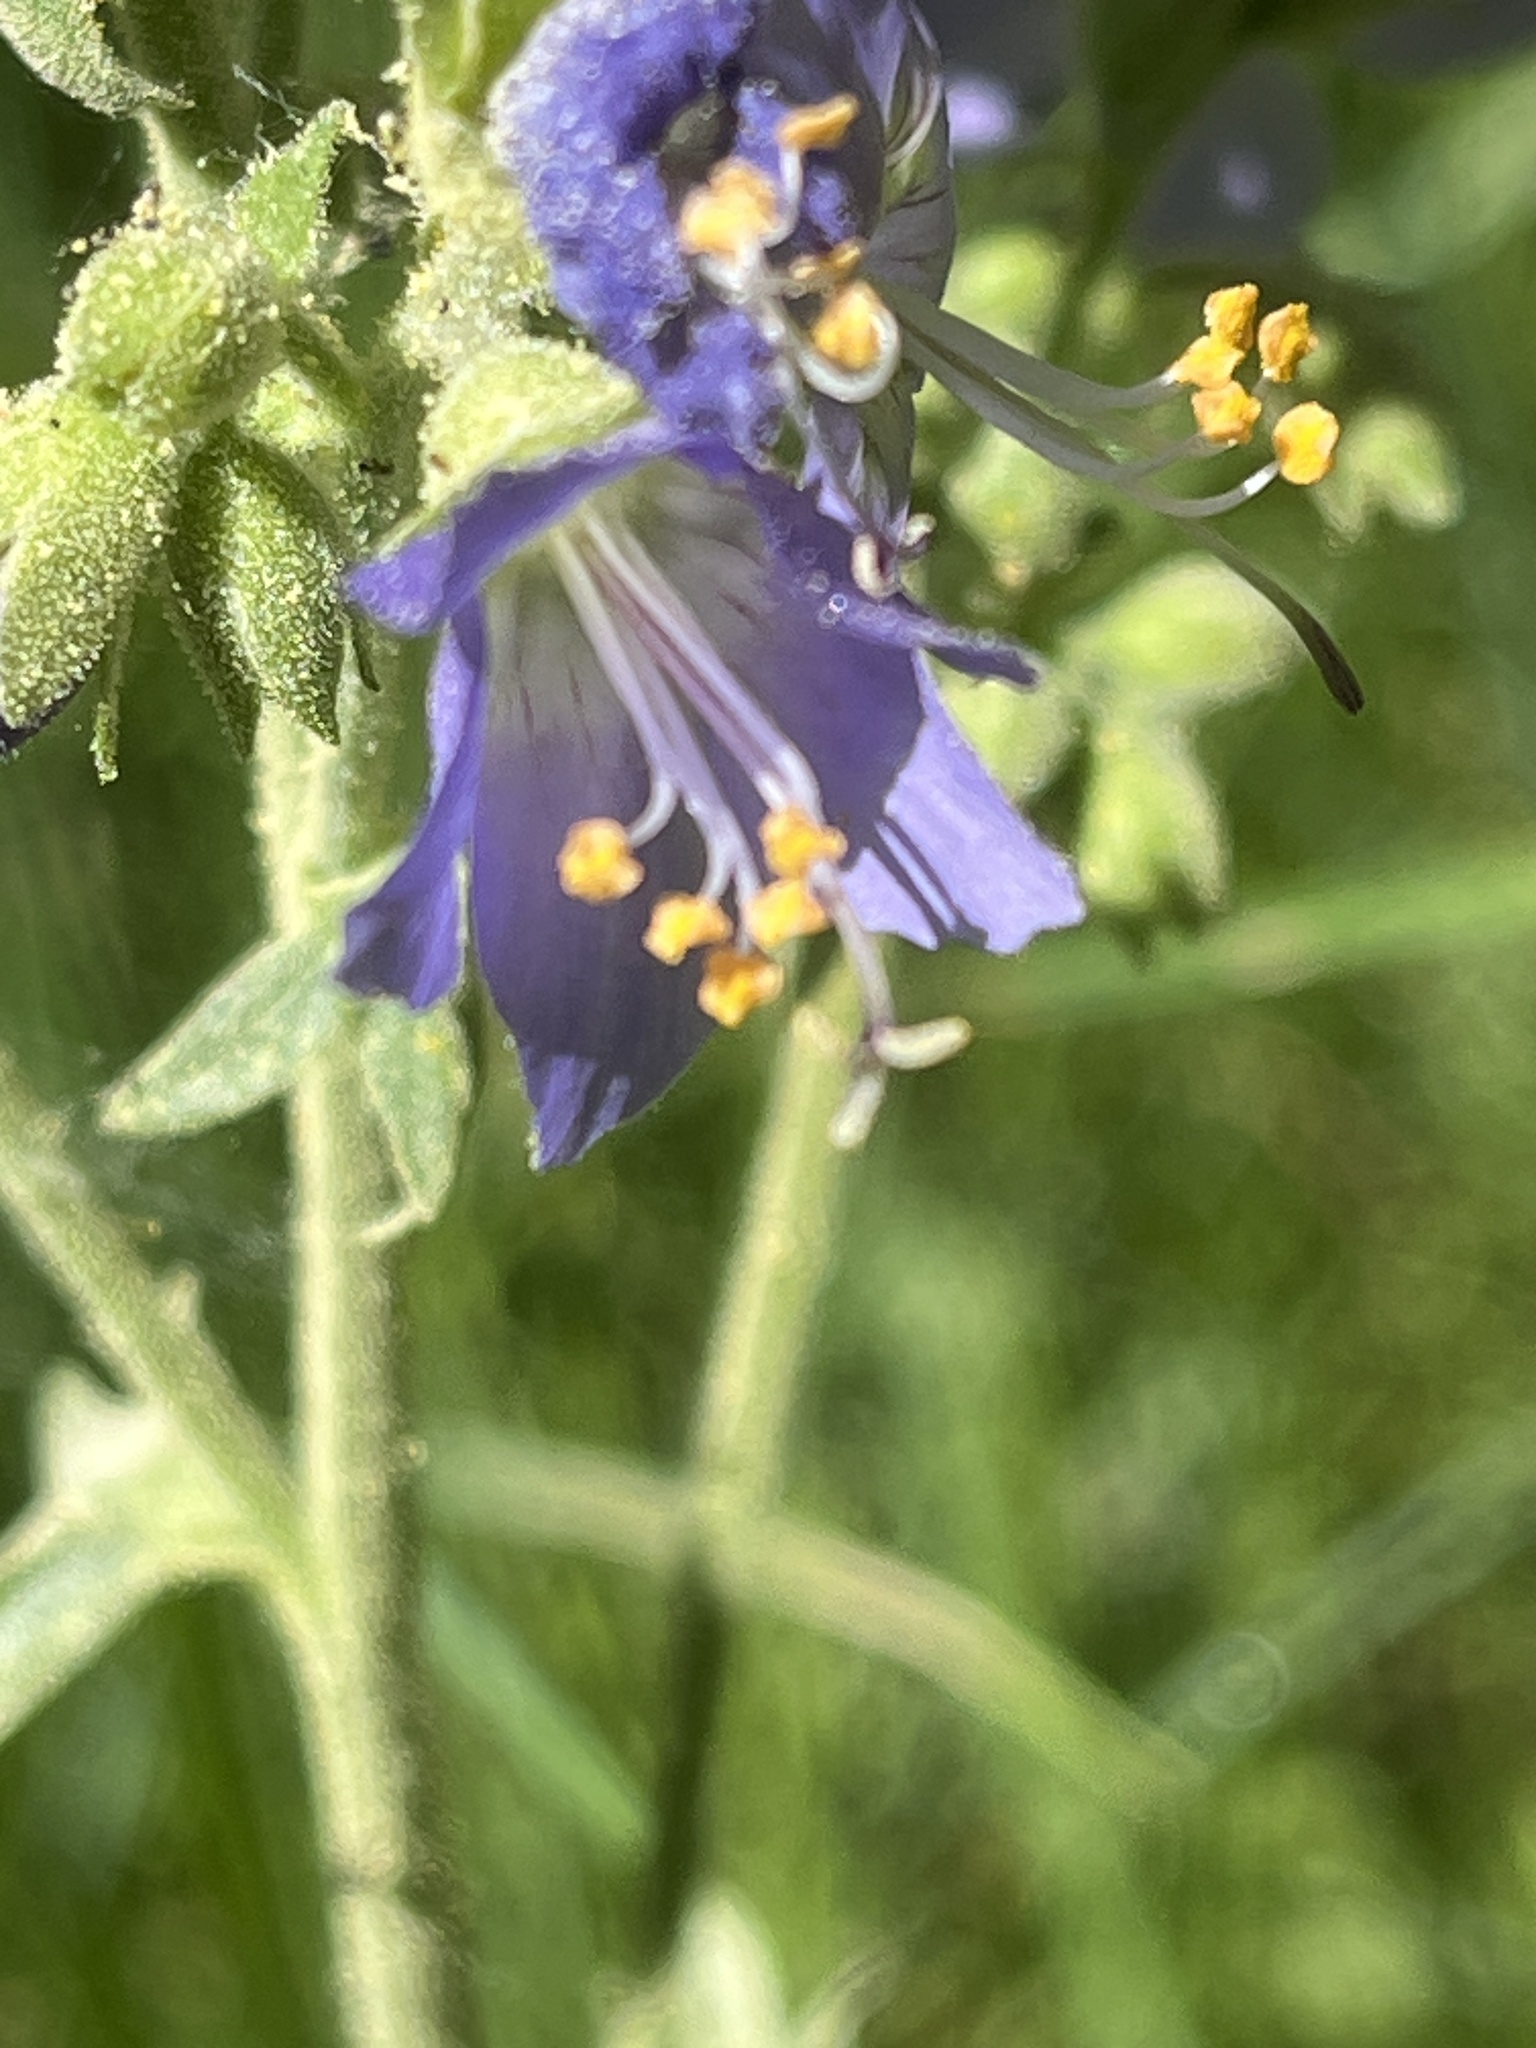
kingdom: Plantae
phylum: Tracheophyta
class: Magnoliopsida
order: Ericales
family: Polemoniaceae
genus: Polemonium
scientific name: Polemonium occidentale
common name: Western jacob's-ladder
